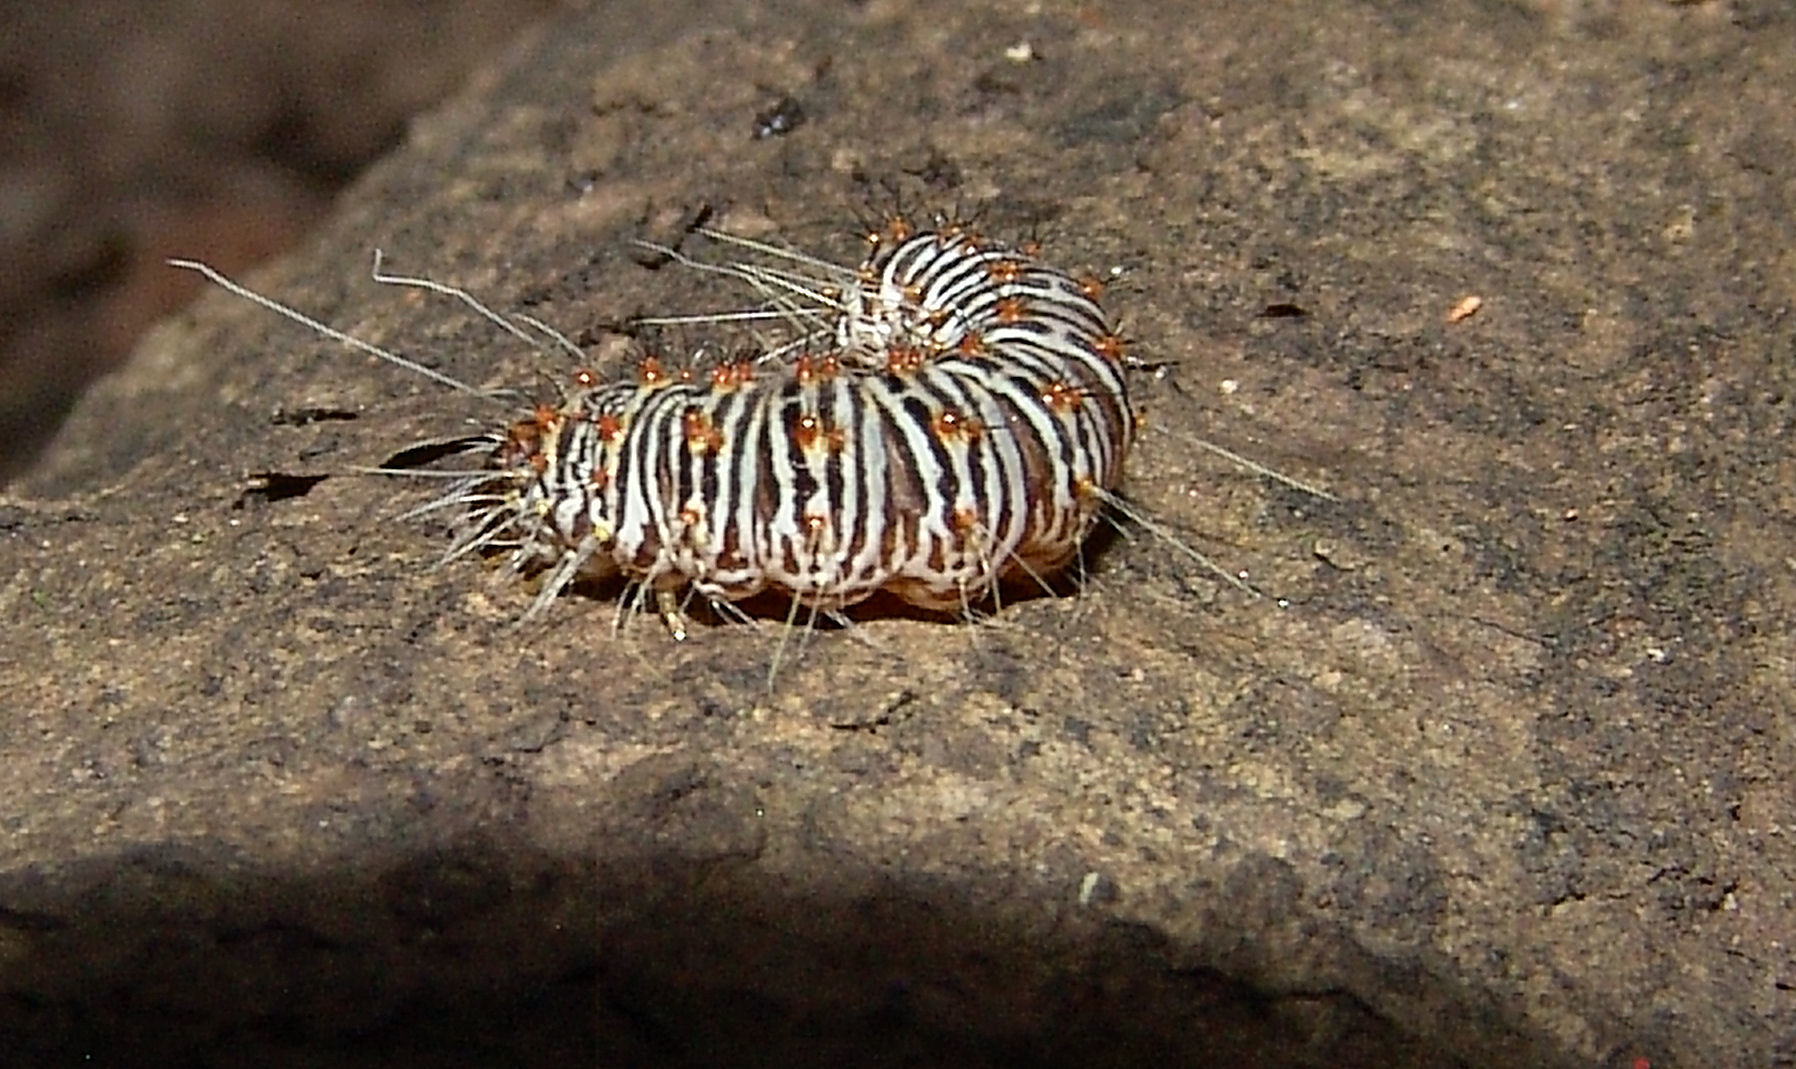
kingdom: Animalia
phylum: Arthropoda
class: Insecta
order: Lepidoptera
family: Noctuidae
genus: Acronicta
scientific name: Acronicta retardata
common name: Maple dagger
